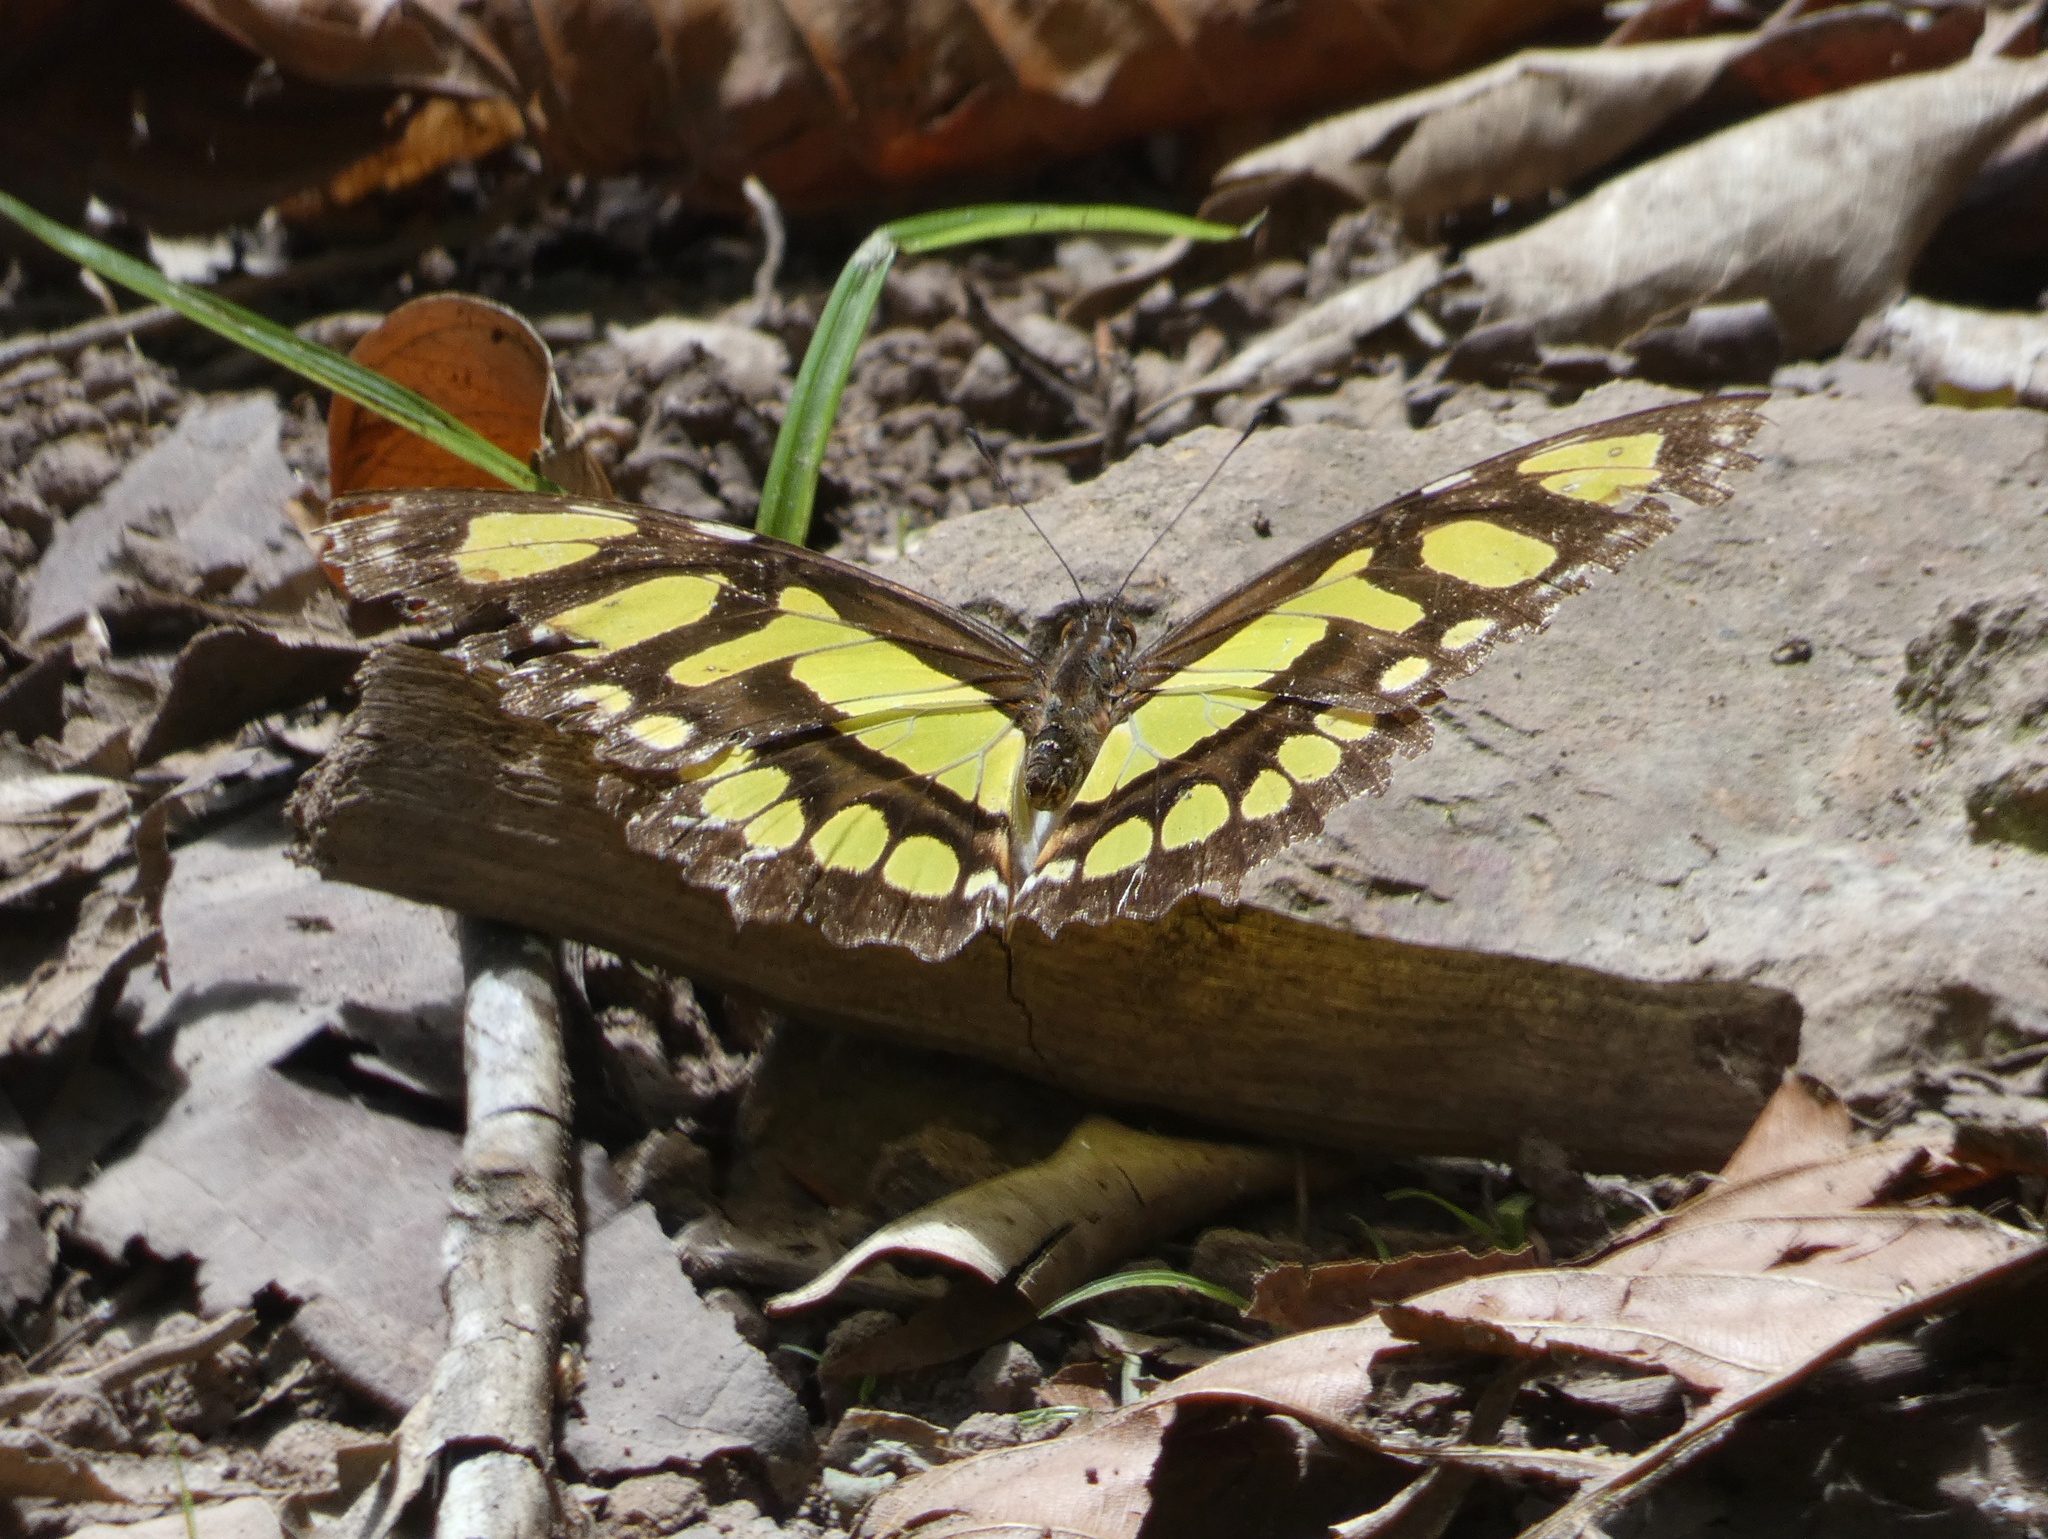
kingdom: Animalia
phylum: Arthropoda
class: Insecta
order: Lepidoptera
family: Nymphalidae
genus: Siproeta
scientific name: Siproeta stelenes
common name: Malachite
